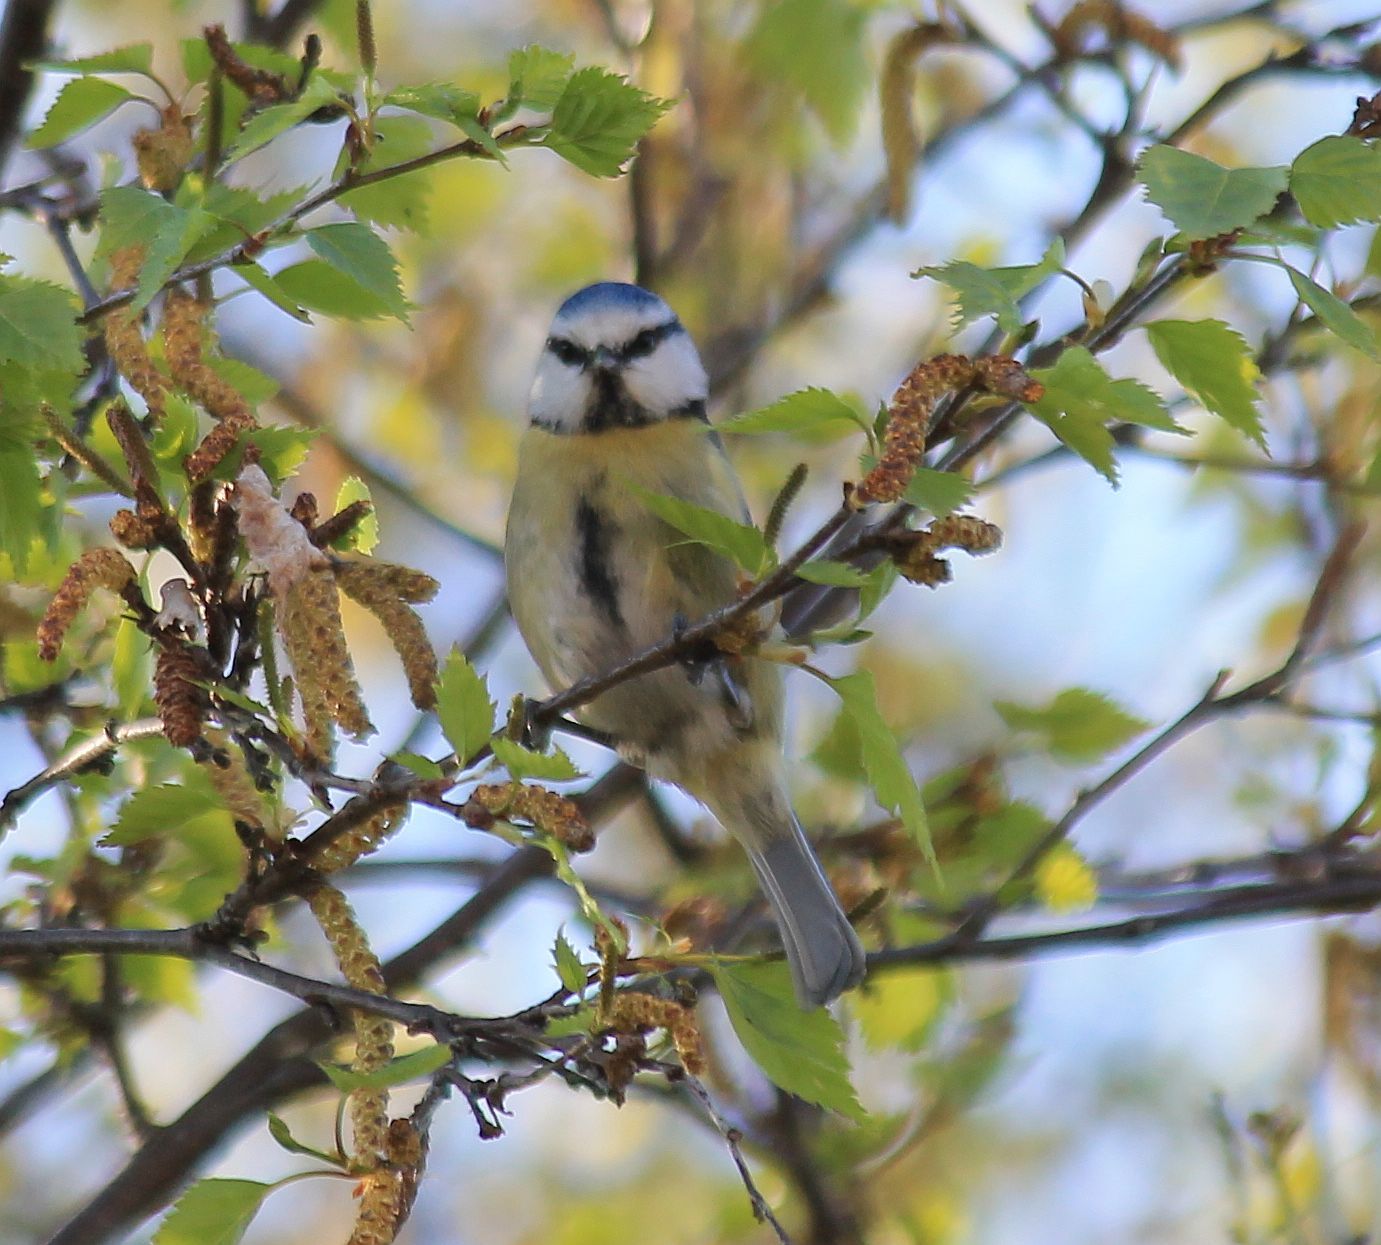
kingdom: Animalia
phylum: Chordata
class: Aves
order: Passeriformes
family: Paridae
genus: Cyanistes
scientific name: Cyanistes caeruleus
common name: Eurasian blue tit
